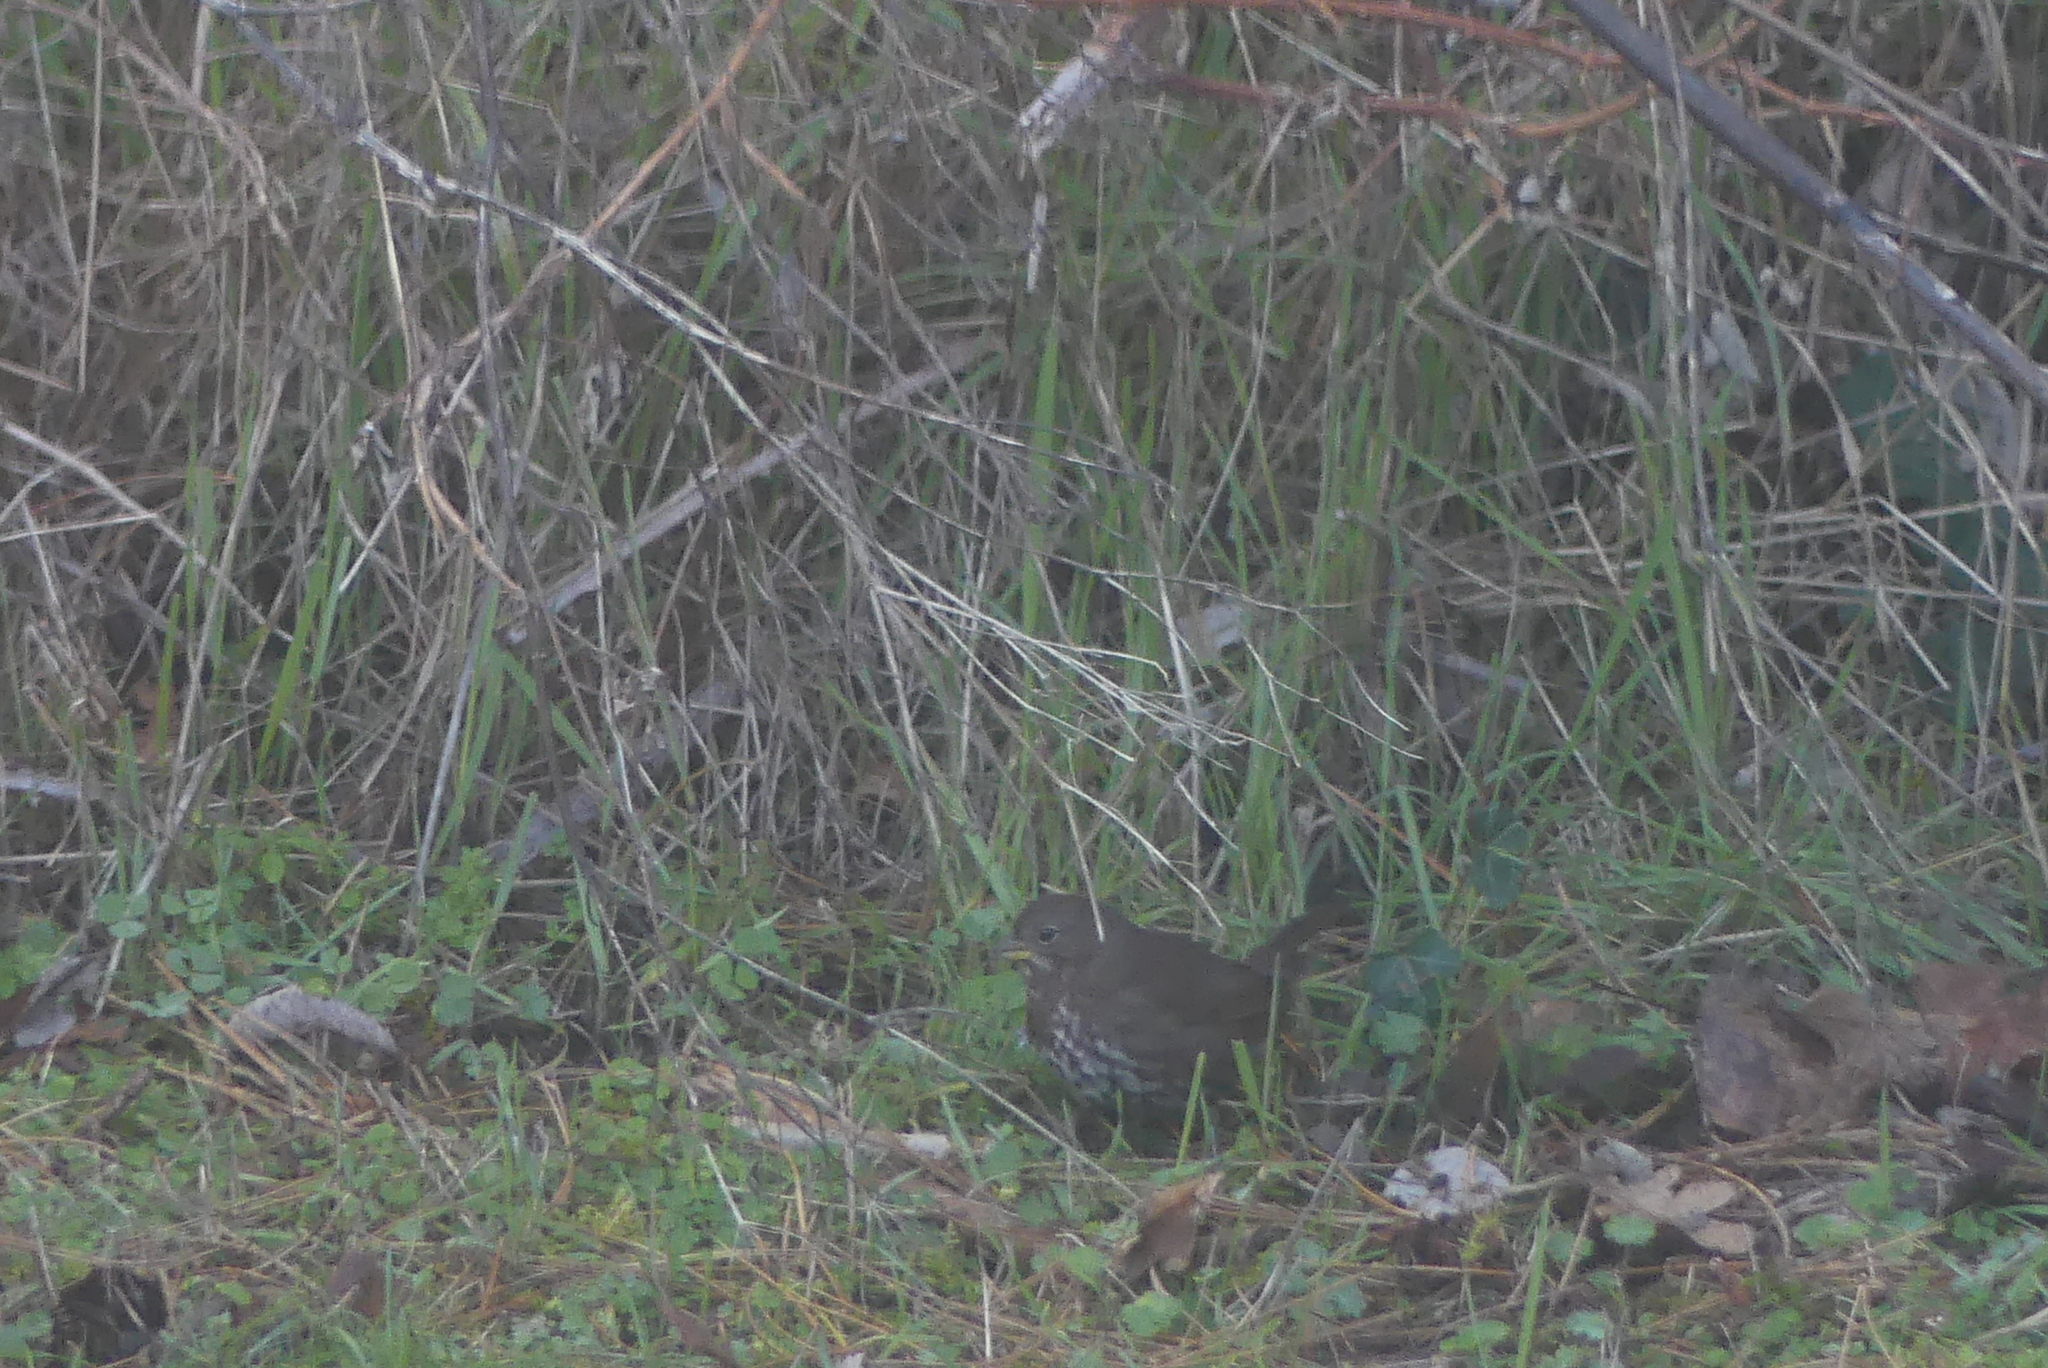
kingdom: Animalia
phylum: Chordata
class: Aves
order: Passeriformes
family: Passerellidae
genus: Passerella
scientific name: Passerella iliaca
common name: Fox sparrow
